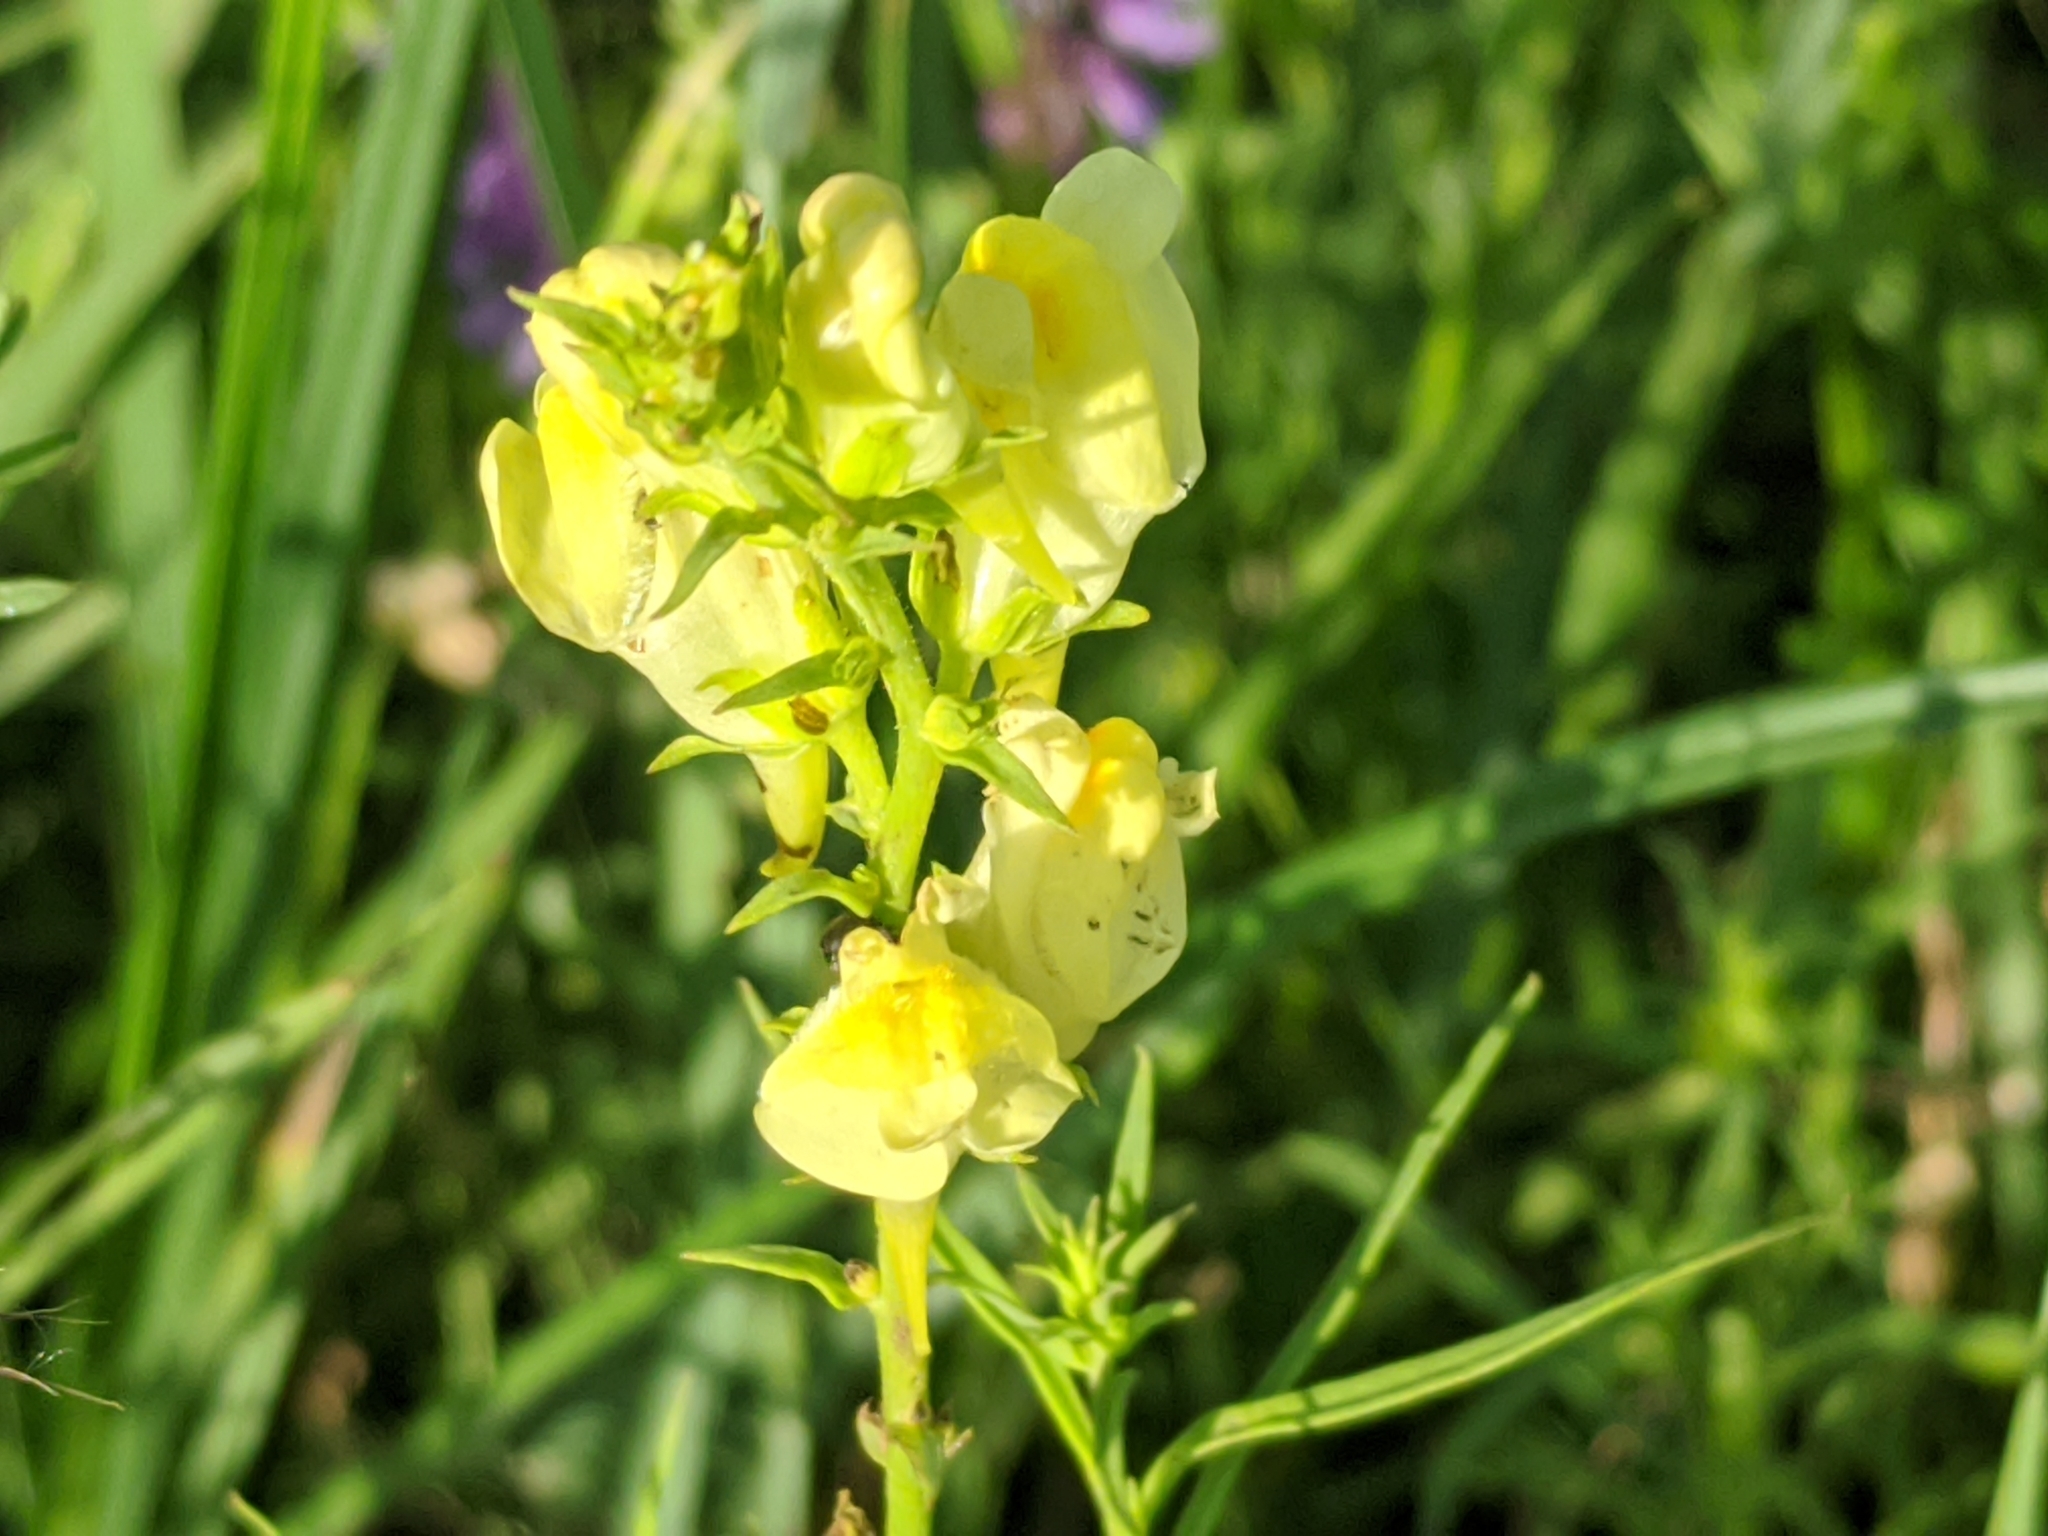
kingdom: Plantae
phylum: Tracheophyta
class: Magnoliopsida
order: Lamiales
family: Plantaginaceae
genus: Linaria
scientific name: Linaria vulgaris
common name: Butter and eggs
